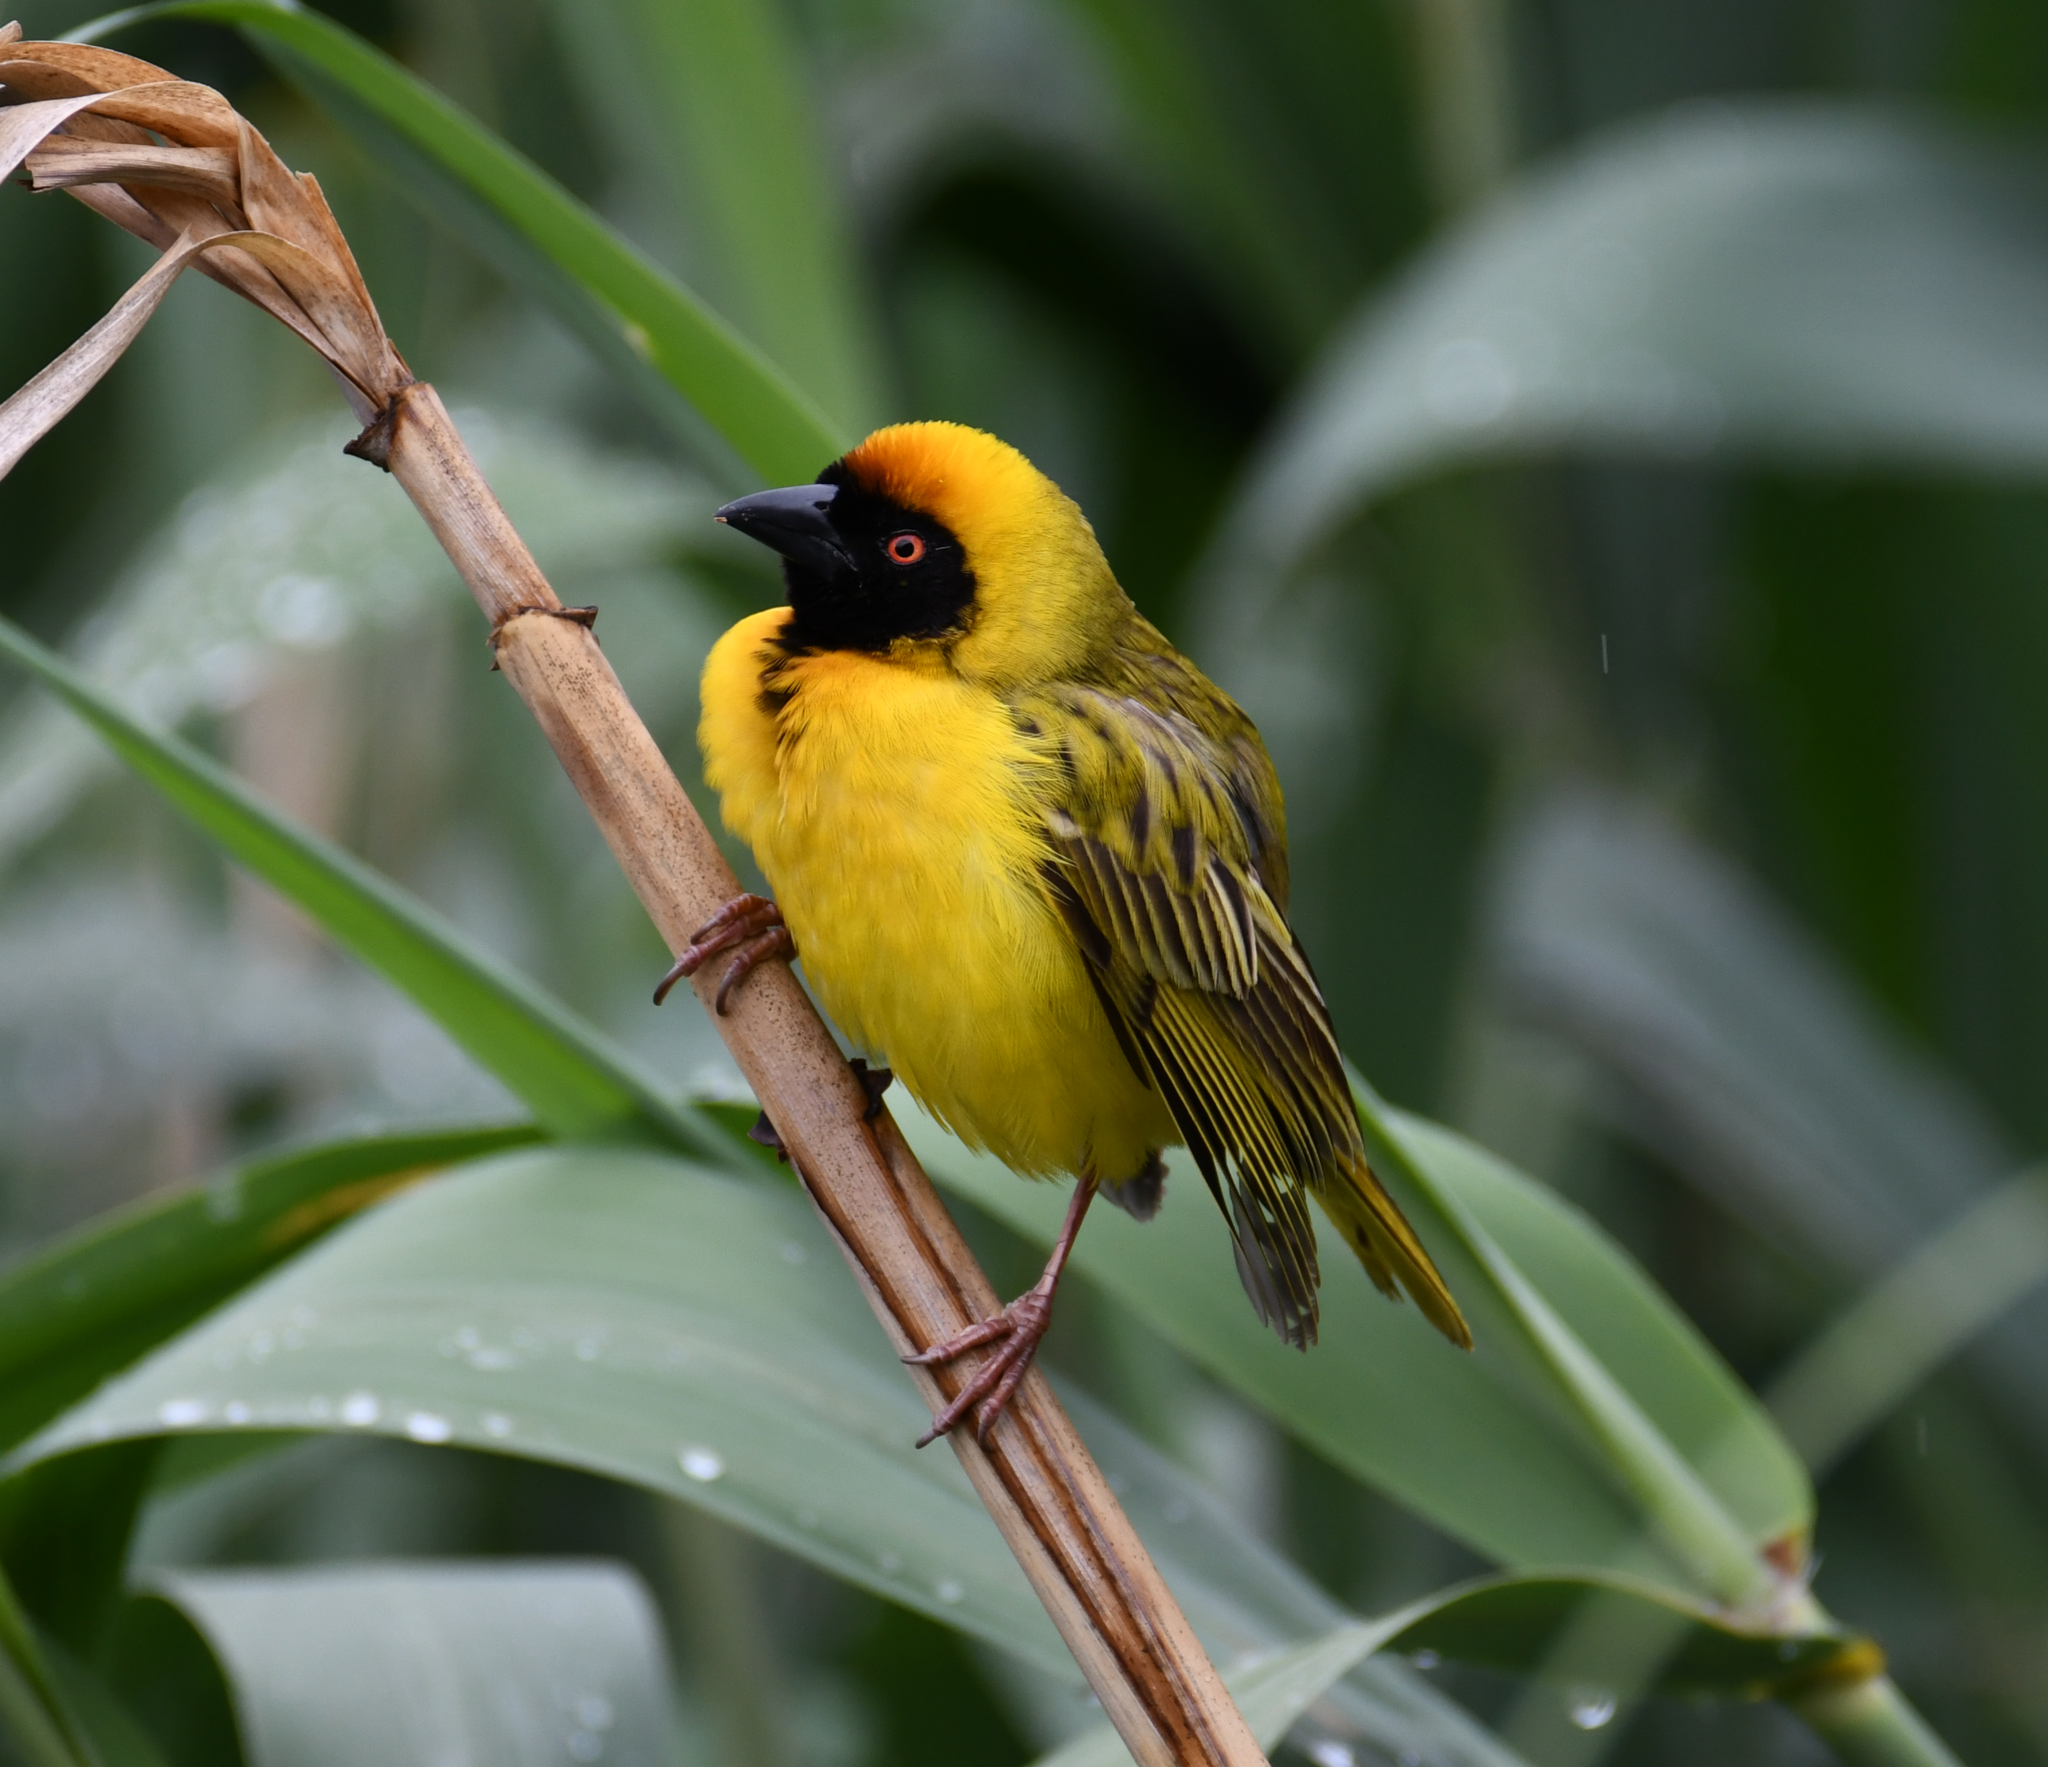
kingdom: Animalia
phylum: Chordata
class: Aves
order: Passeriformes
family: Ploceidae
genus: Ploceus
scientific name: Ploceus velatus
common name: Southern masked weaver
